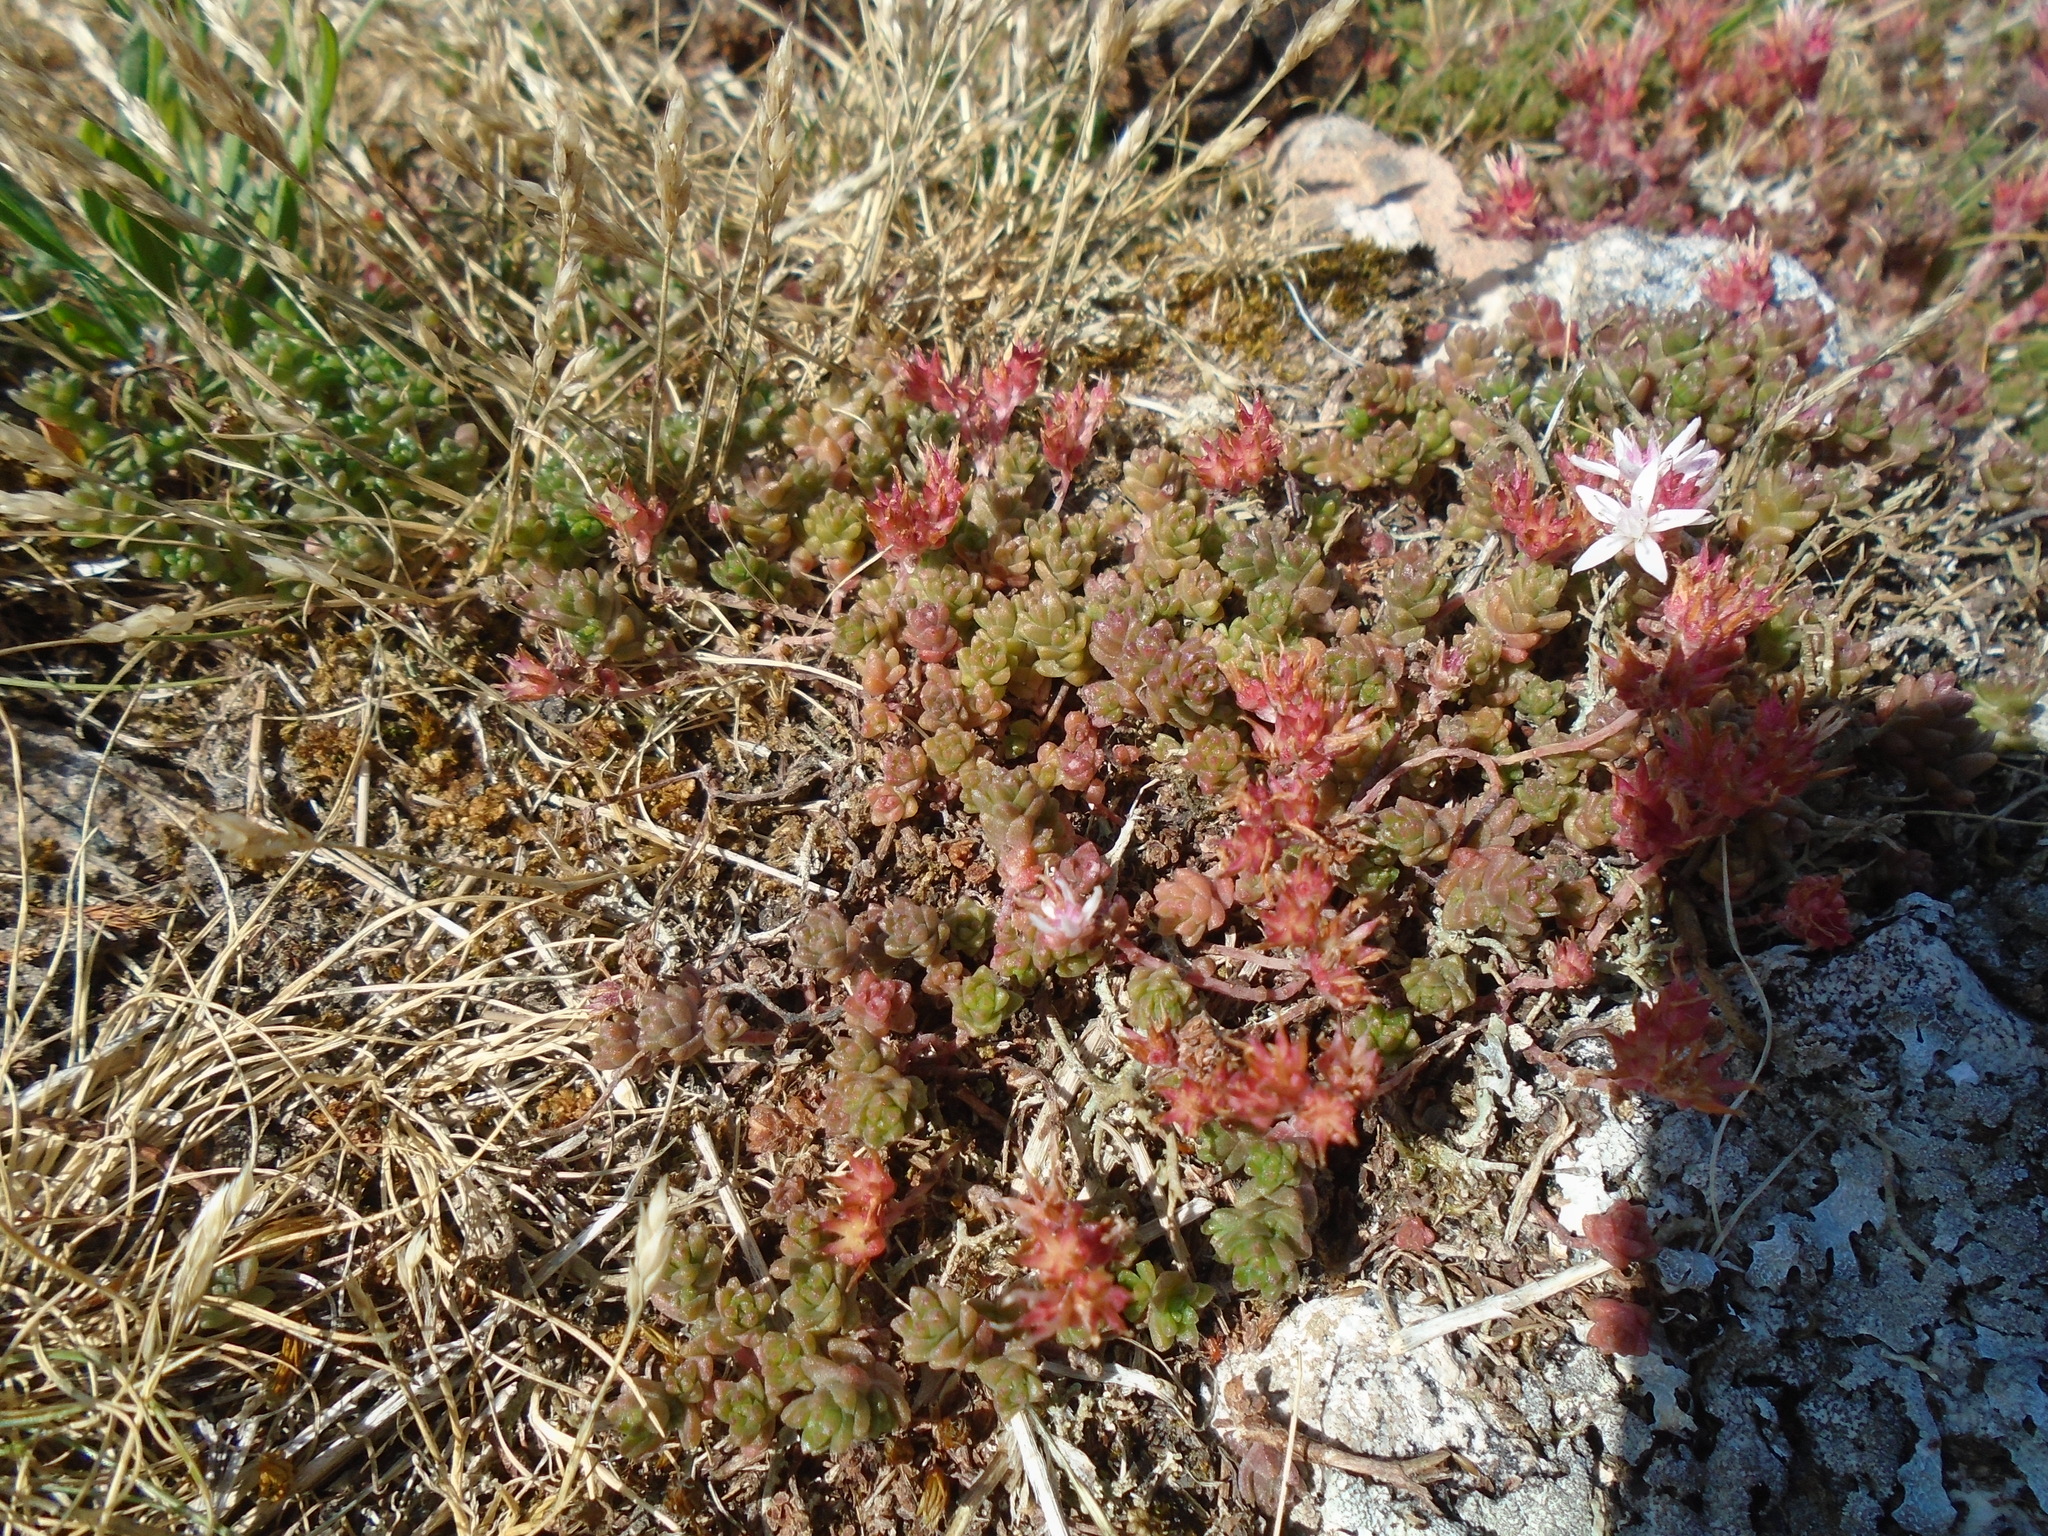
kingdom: Plantae
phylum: Tracheophyta
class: Magnoliopsida
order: Saxifragales
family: Crassulaceae
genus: Sedum
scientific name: Sedum anglicum
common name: English stonecrop
